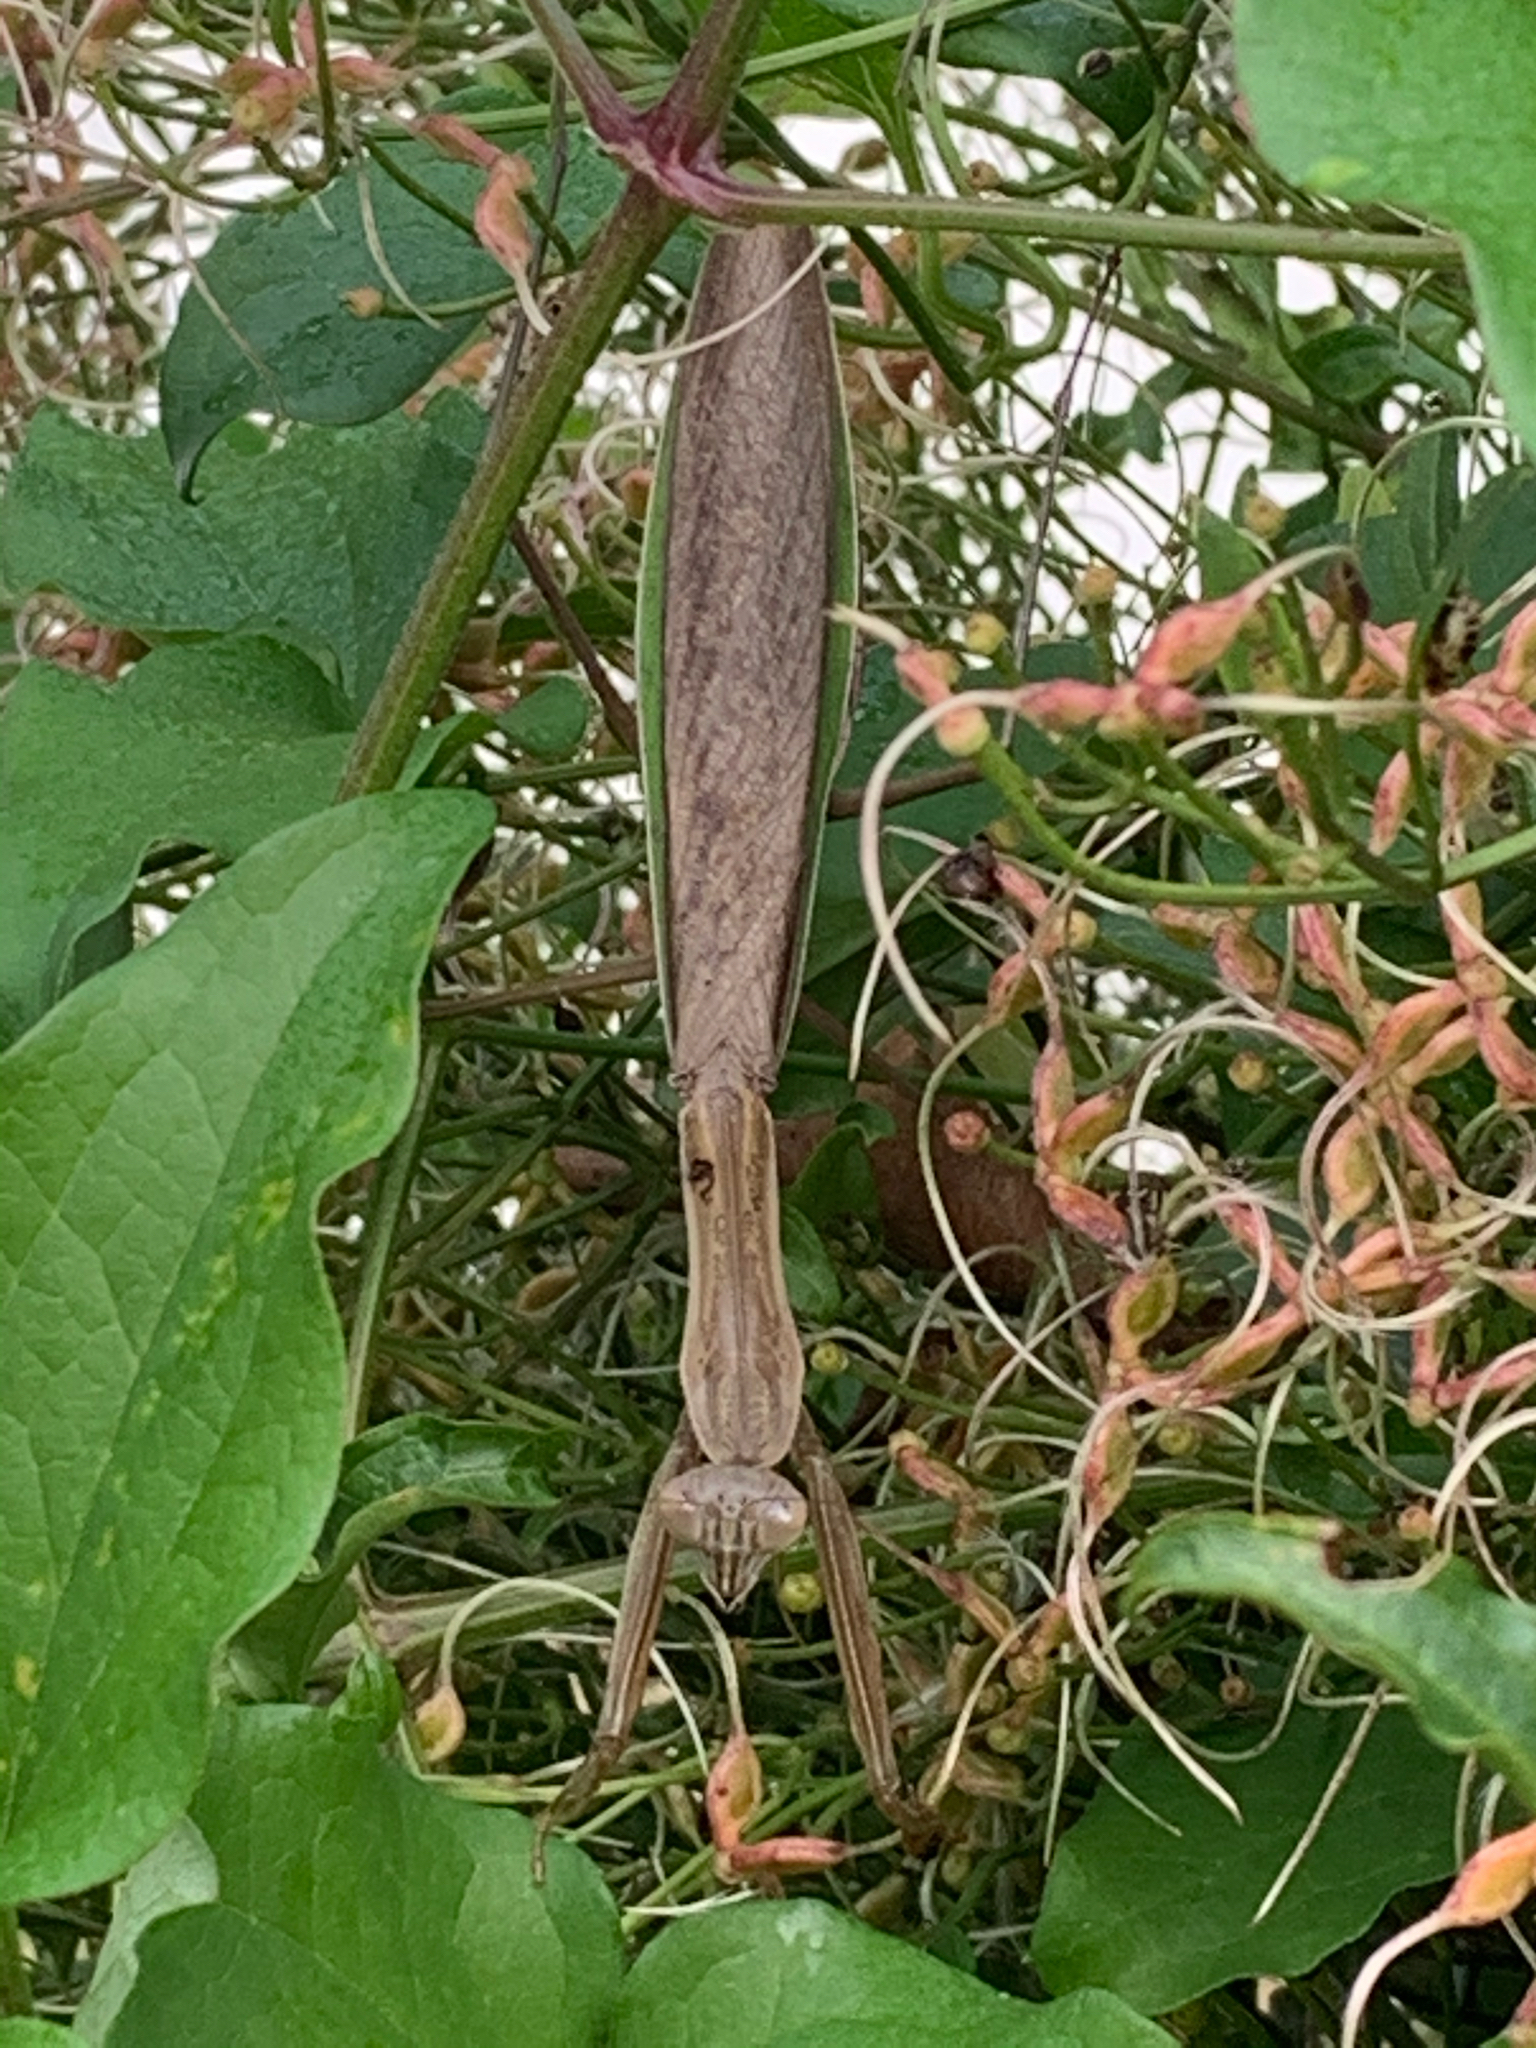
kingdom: Animalia
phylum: Arthropoda
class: Insecta
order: Mantodea
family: Mantidae
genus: Tenodera
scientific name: Tenodera sinensis
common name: Chinese mantis
